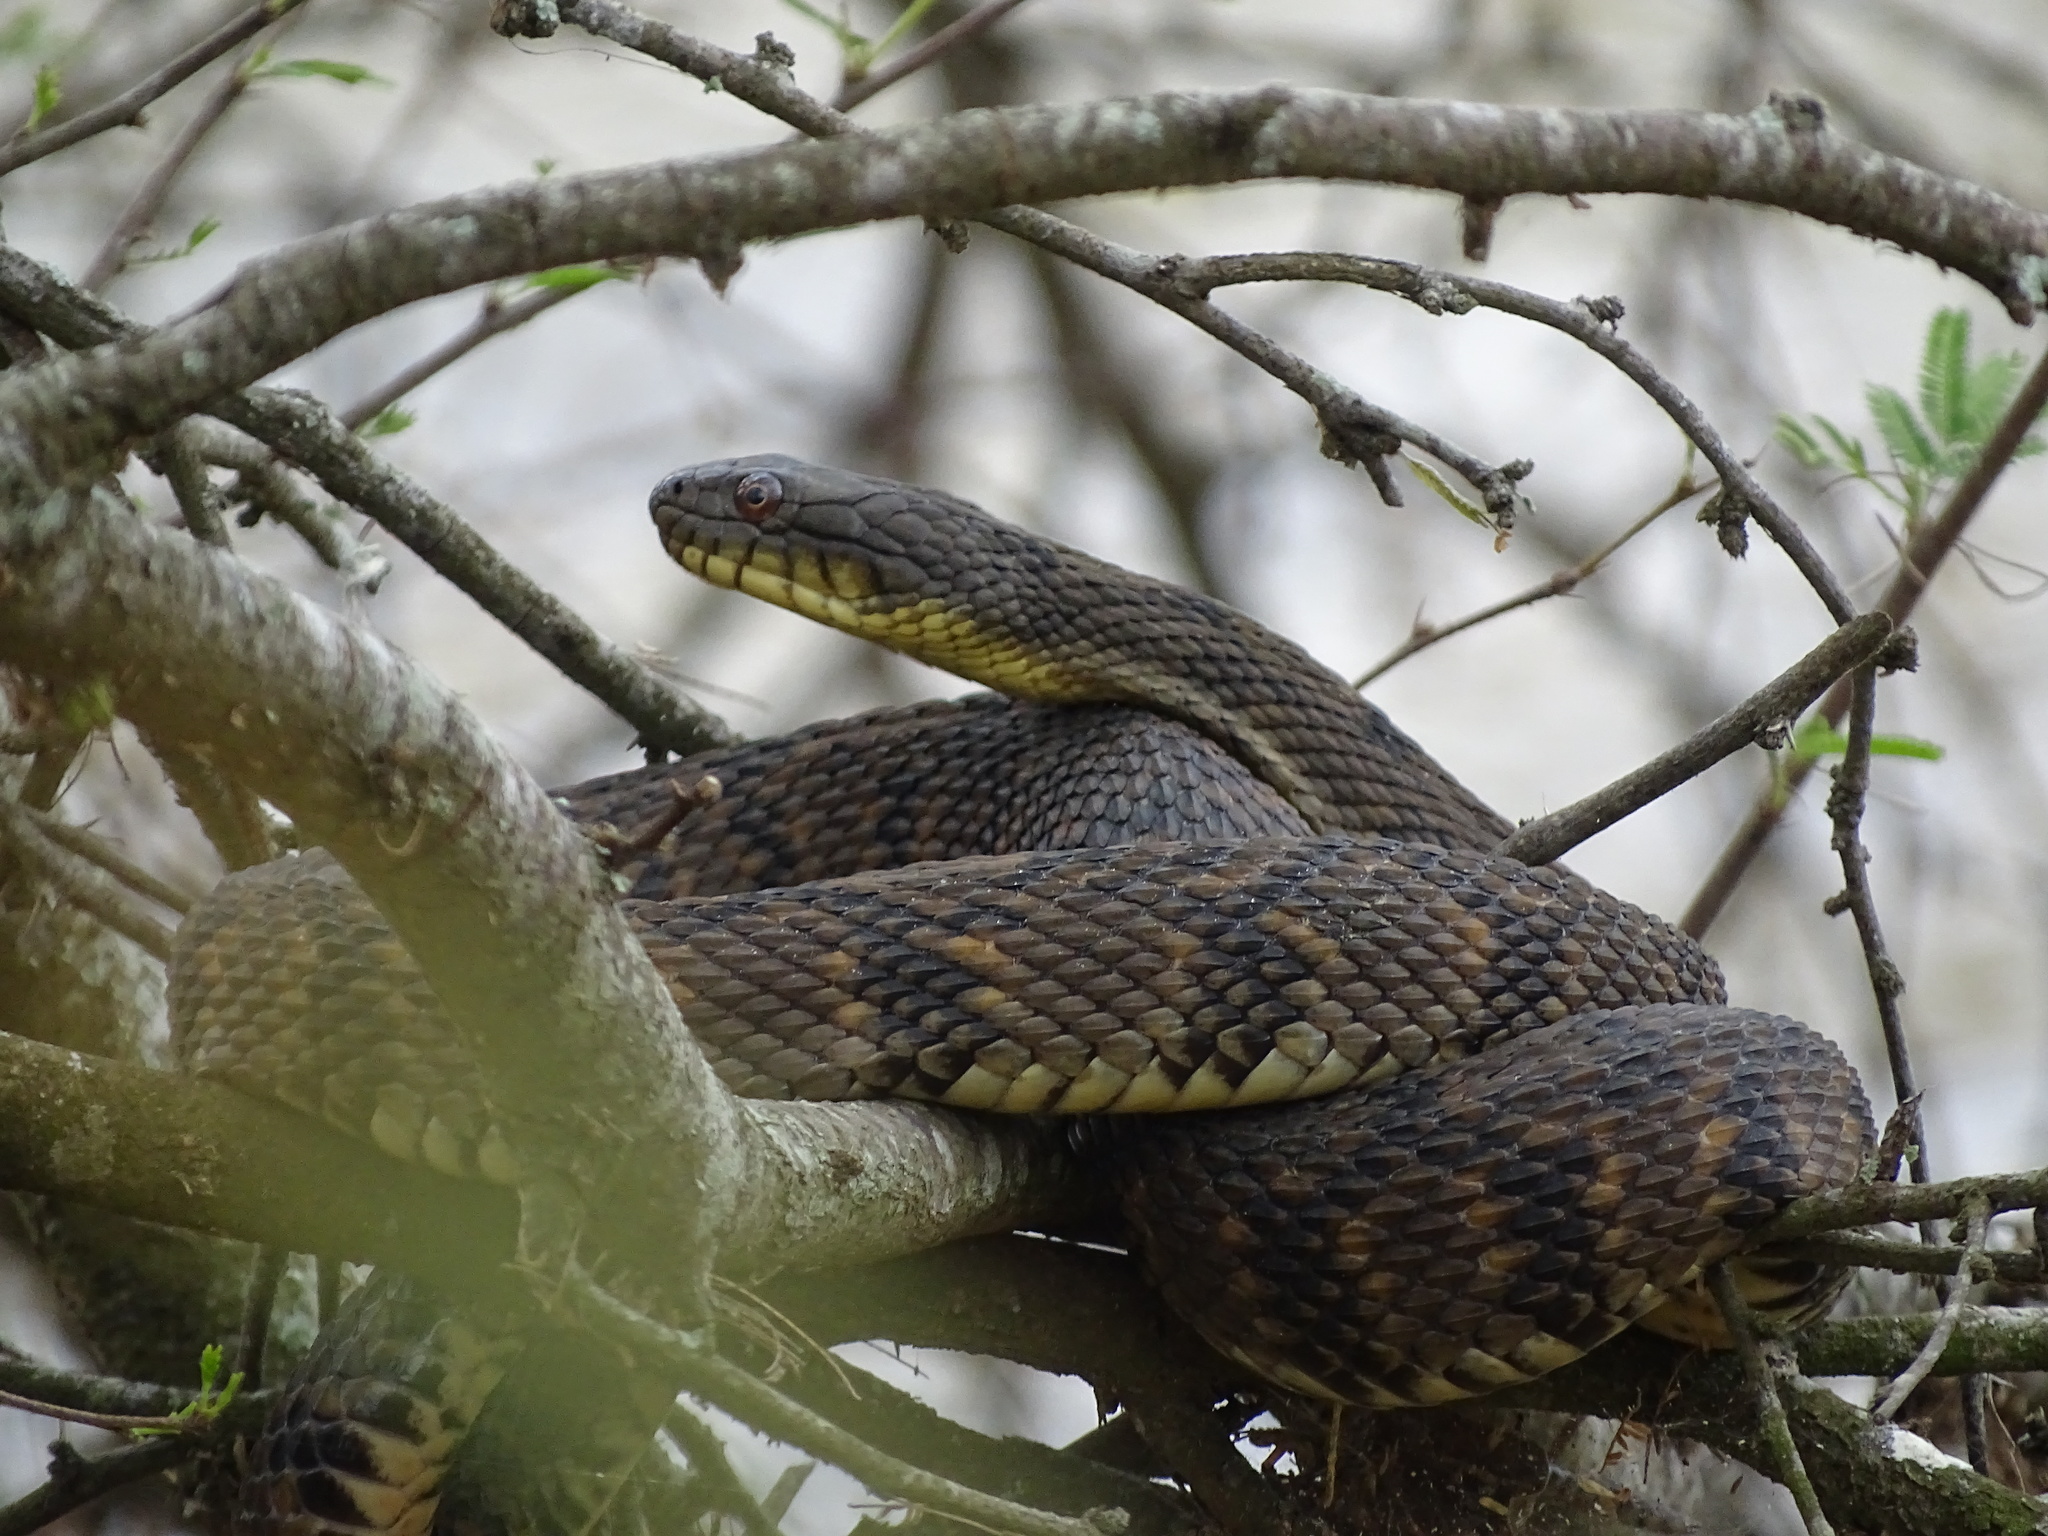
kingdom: Animalia
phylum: Chordata
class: Squamata
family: Colubridae
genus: Nerodia
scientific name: Nerodia rhombifer
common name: Diamondback water snake
